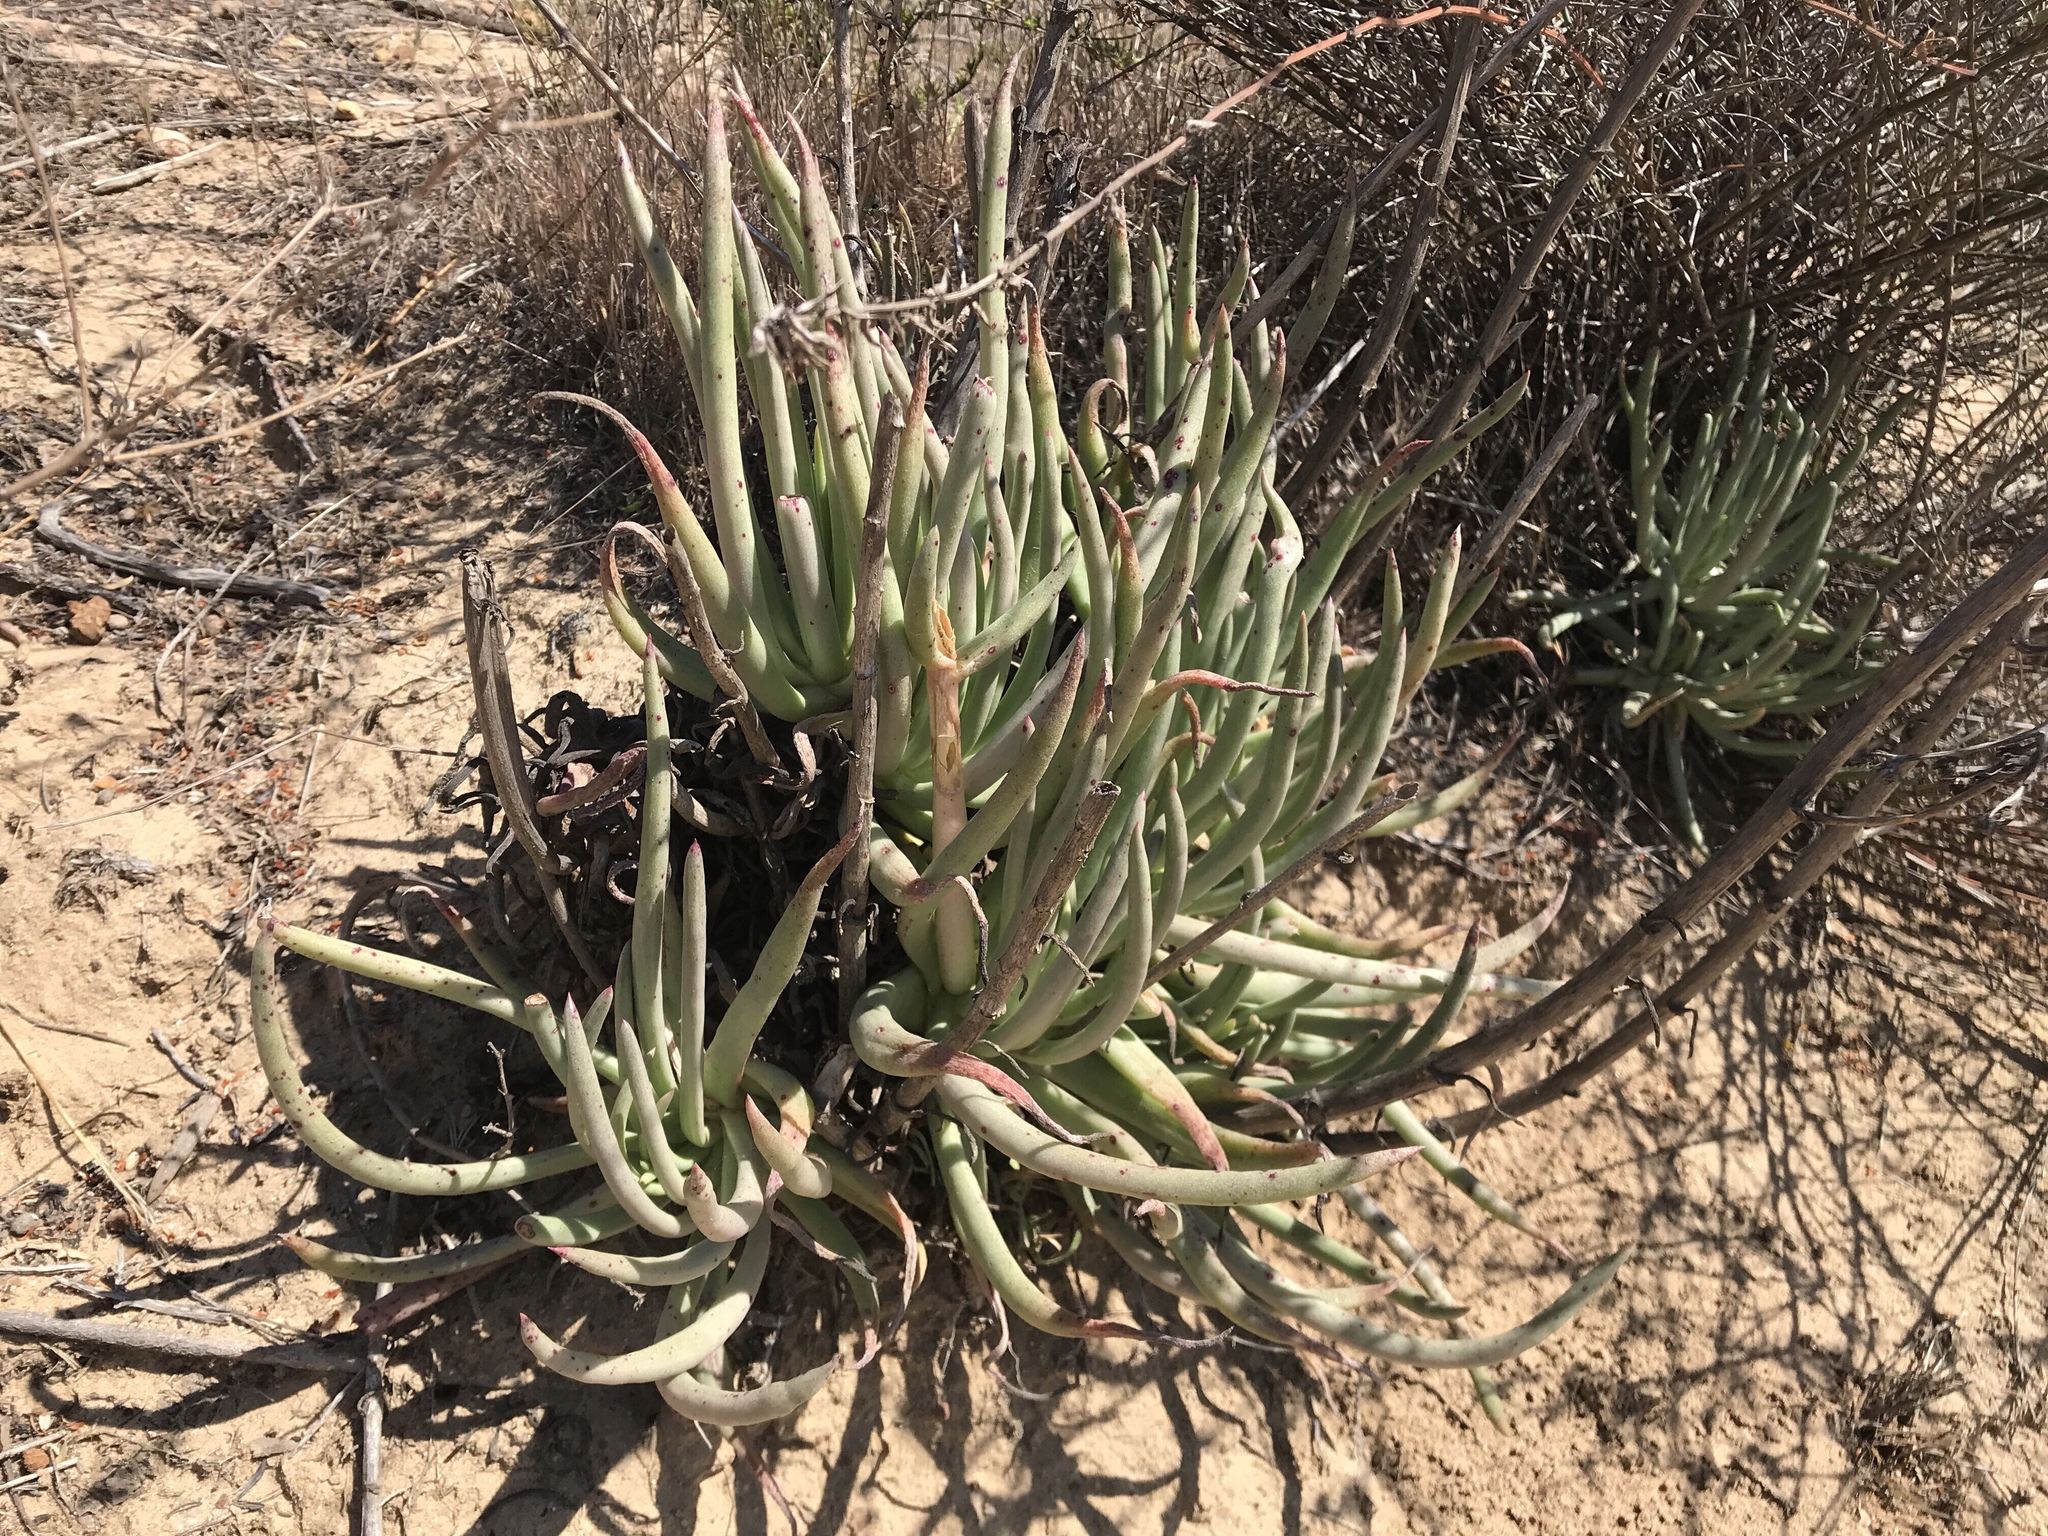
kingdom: Plantae
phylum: Tracheophyta
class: Magnoliopsida
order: Saxifragales
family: Crassulaceae
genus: Dudleya
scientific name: Dudleya edulis
